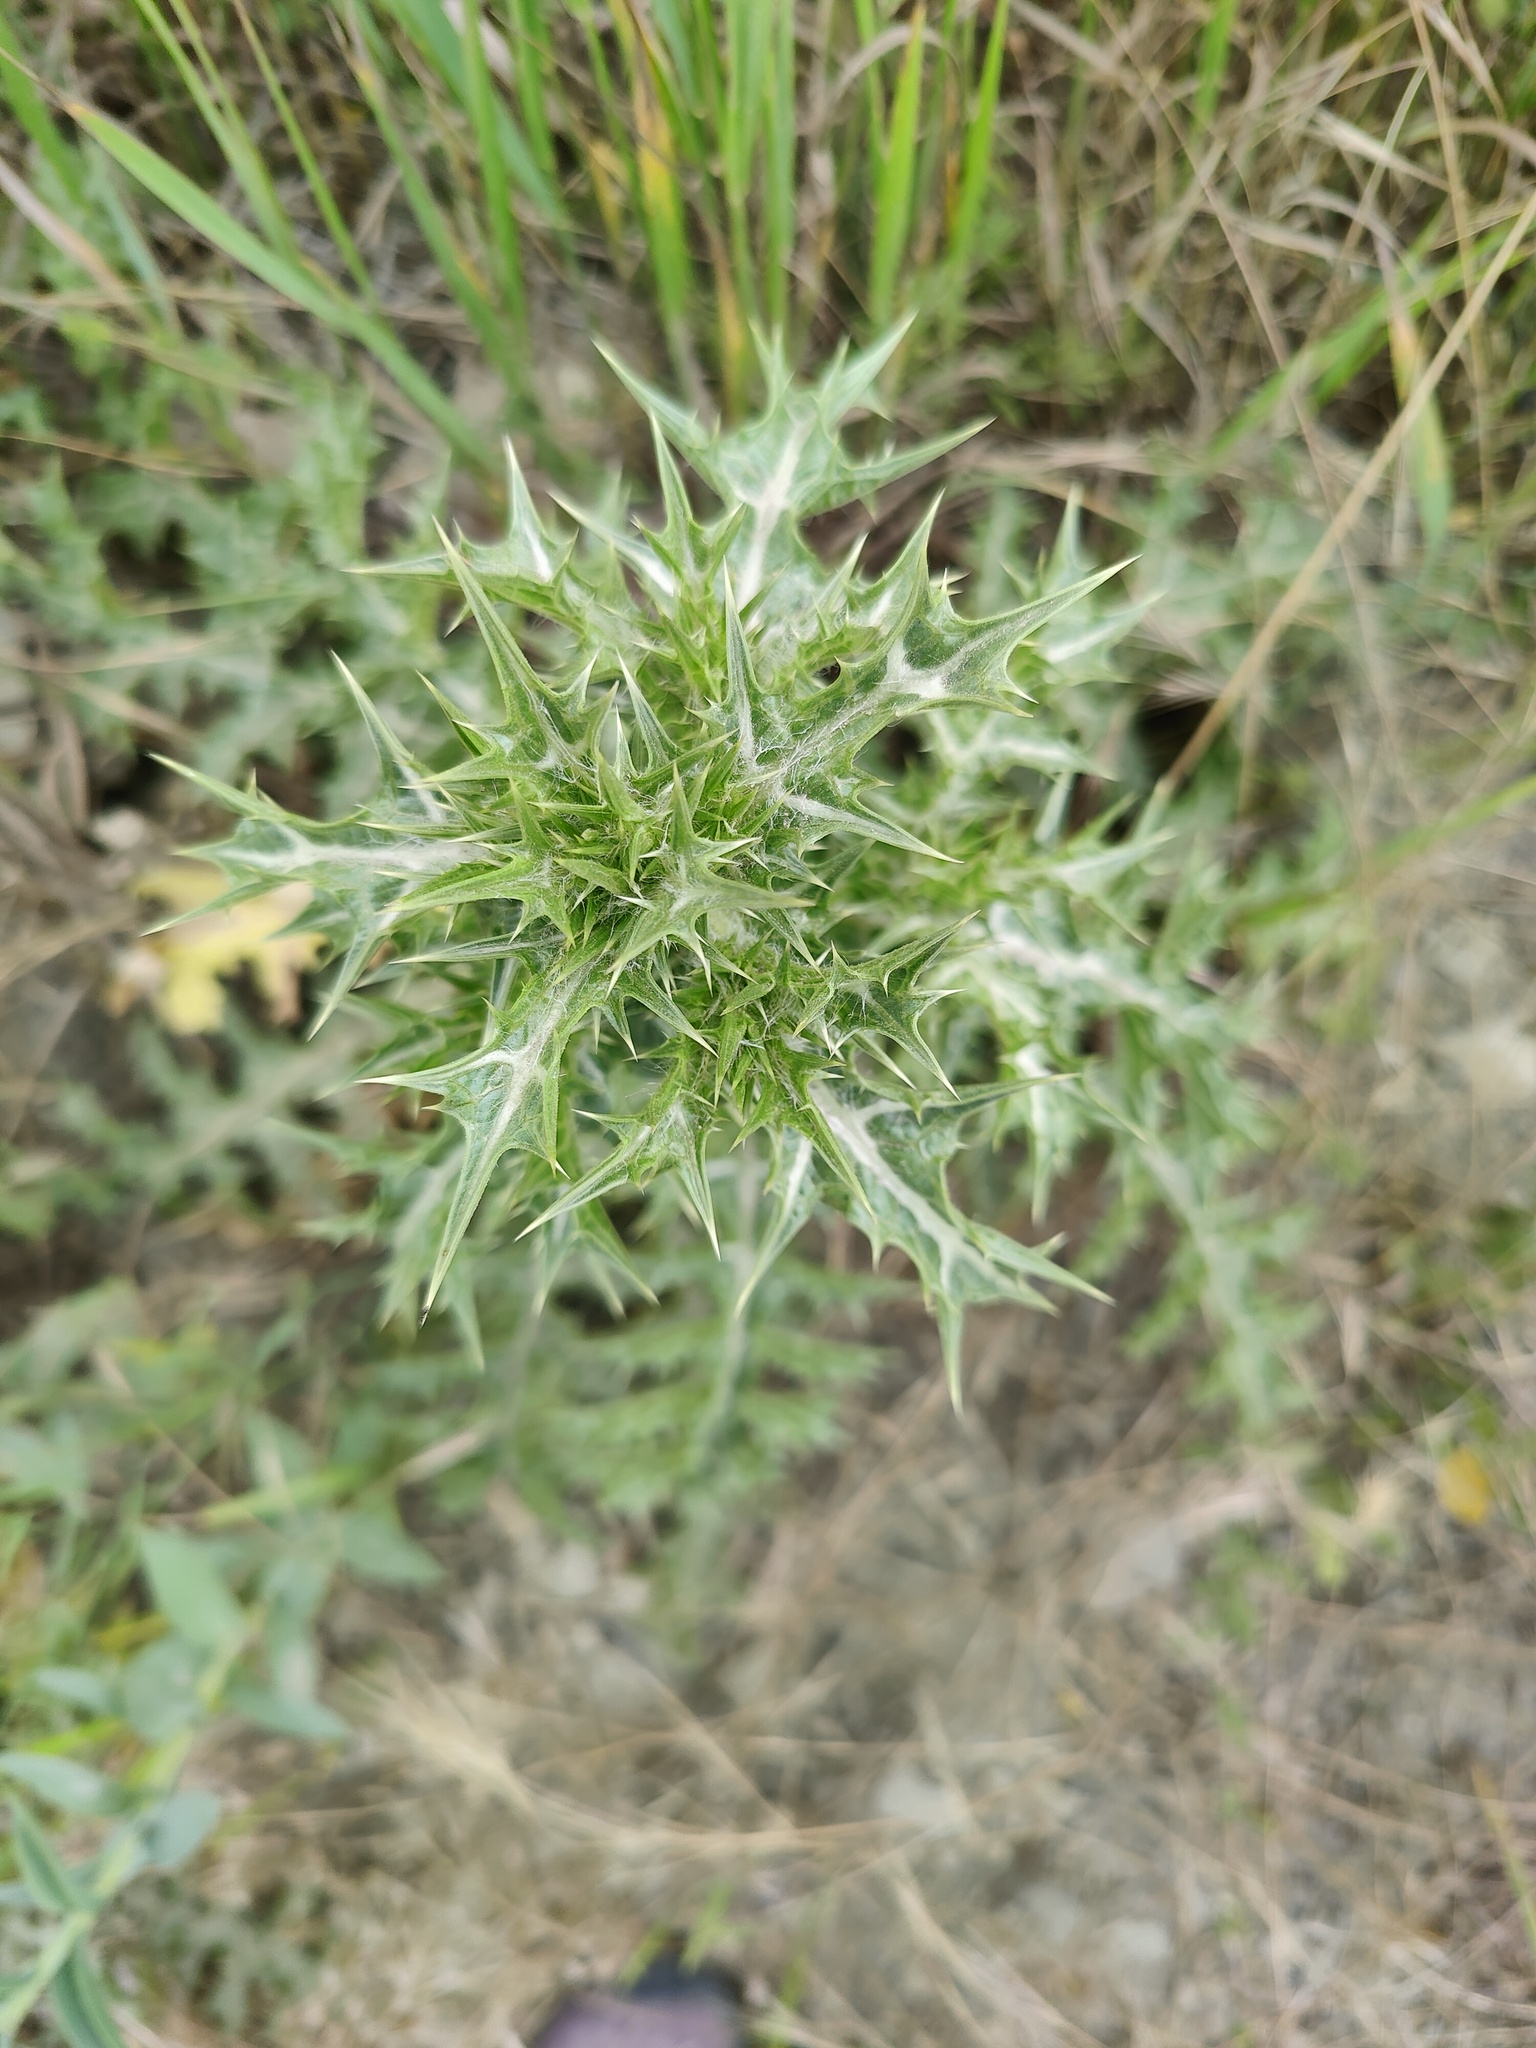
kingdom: Plantae
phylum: Tracheophyta
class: Magnoliopsida
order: Asterales
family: Asteraceae
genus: Scolymus
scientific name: Scolymus hispanicus
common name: Golden thistle
